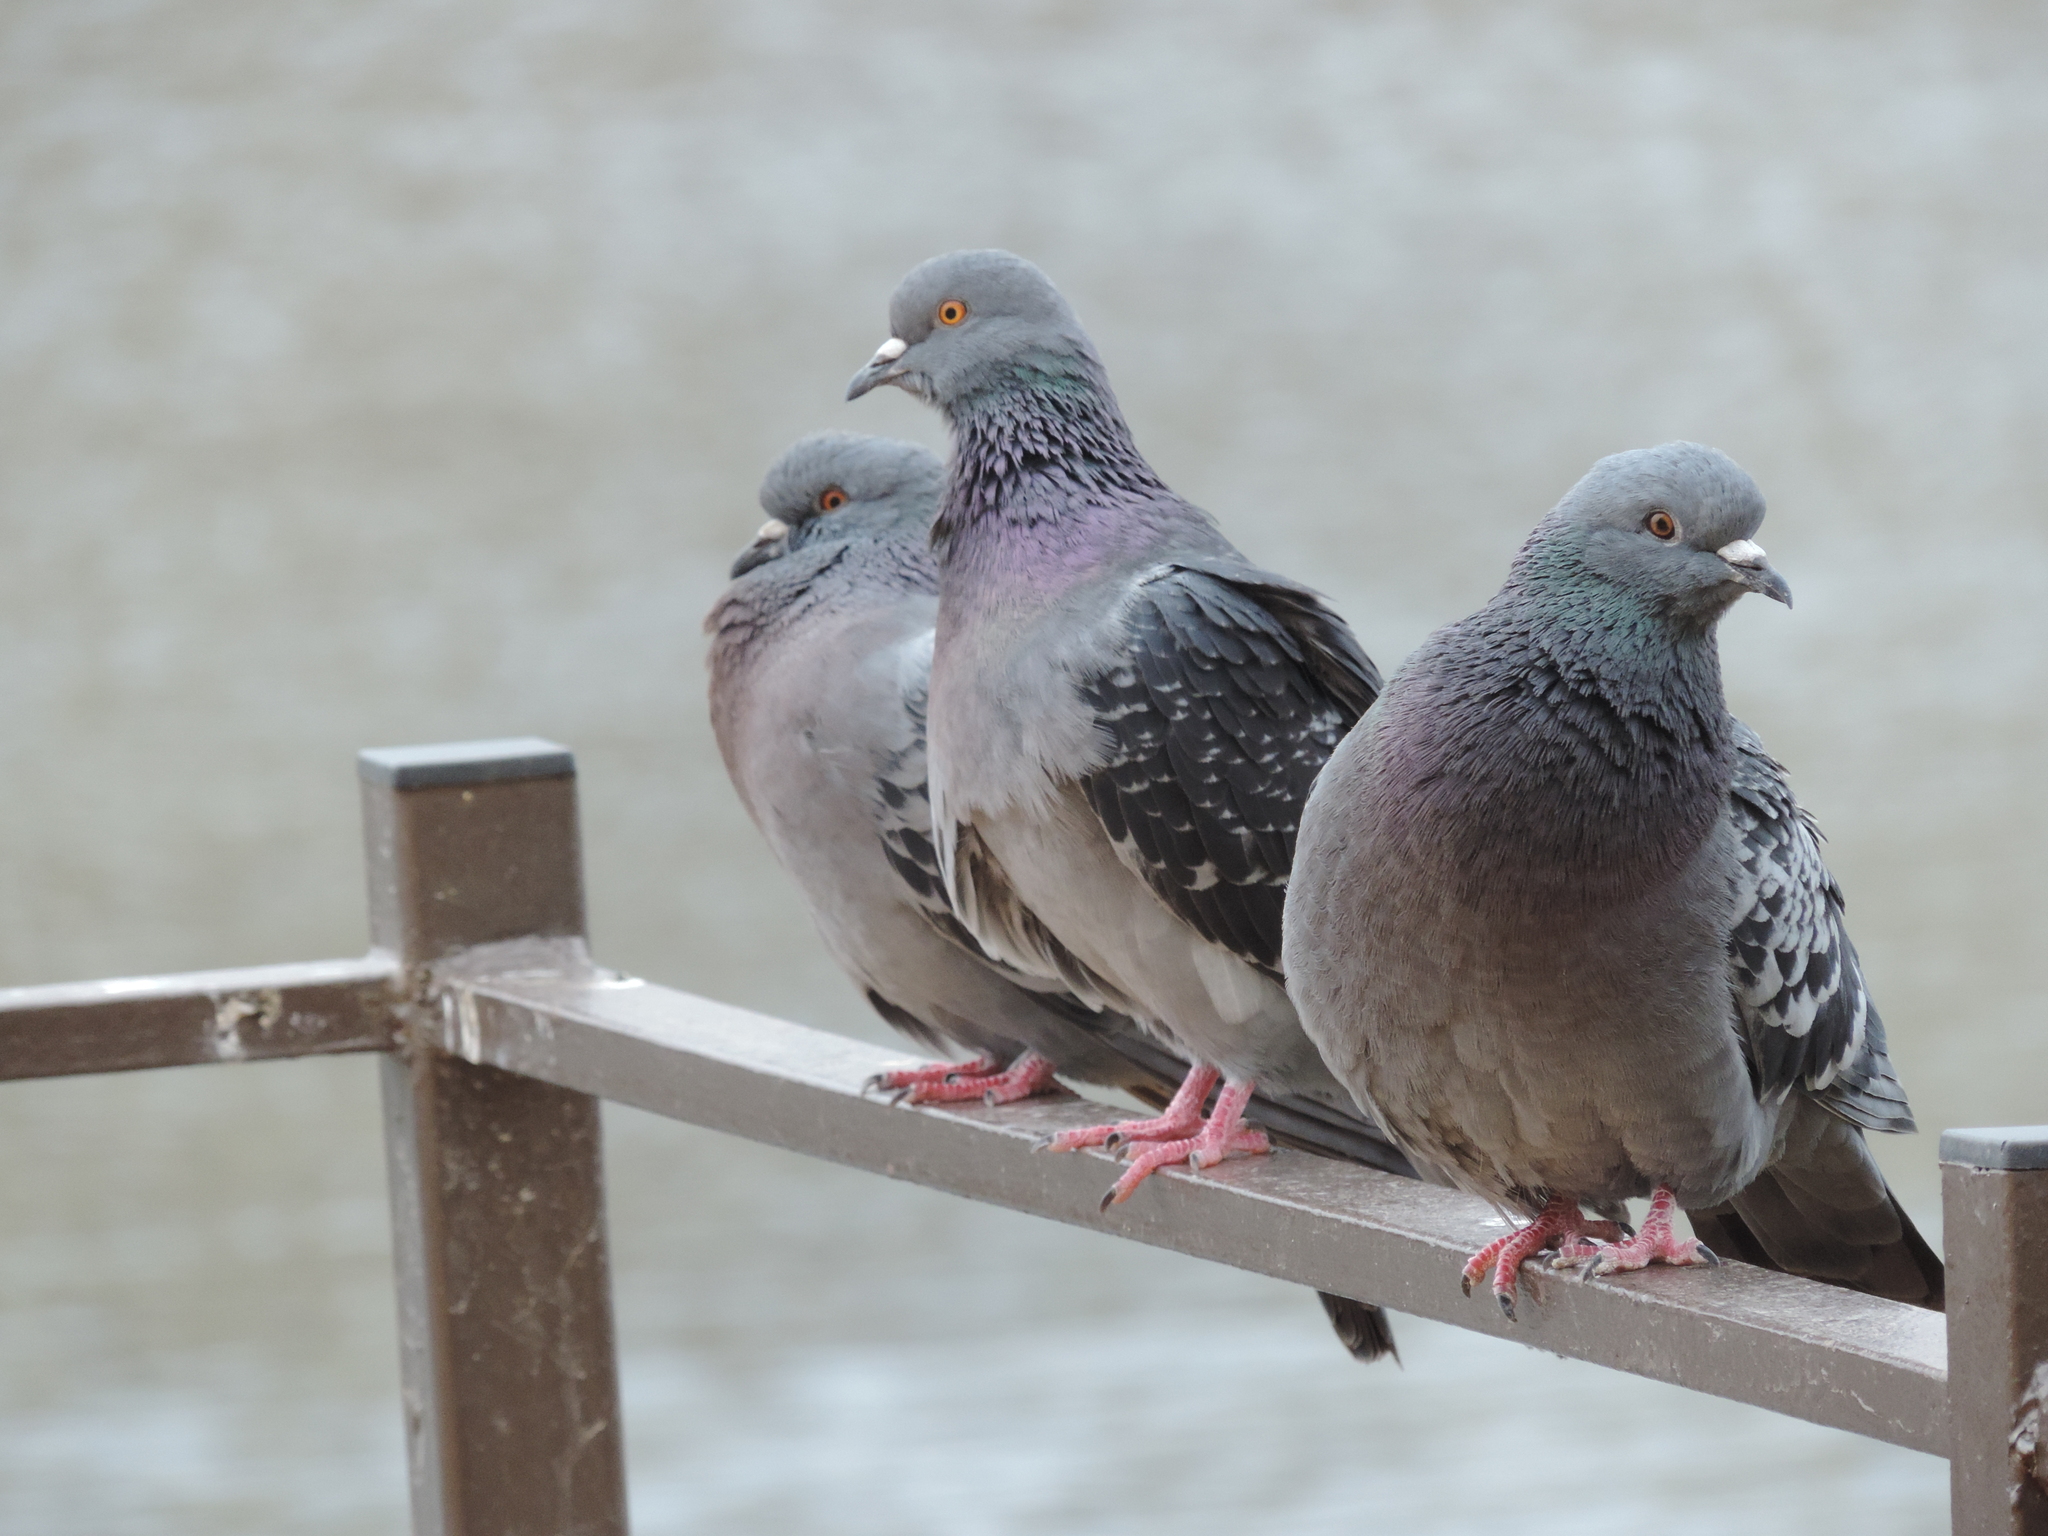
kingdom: Animalia
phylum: Chordata
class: Aves
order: Columbiformes
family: Columbidae
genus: Columba
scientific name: Columba livia
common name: Rock pigeon
